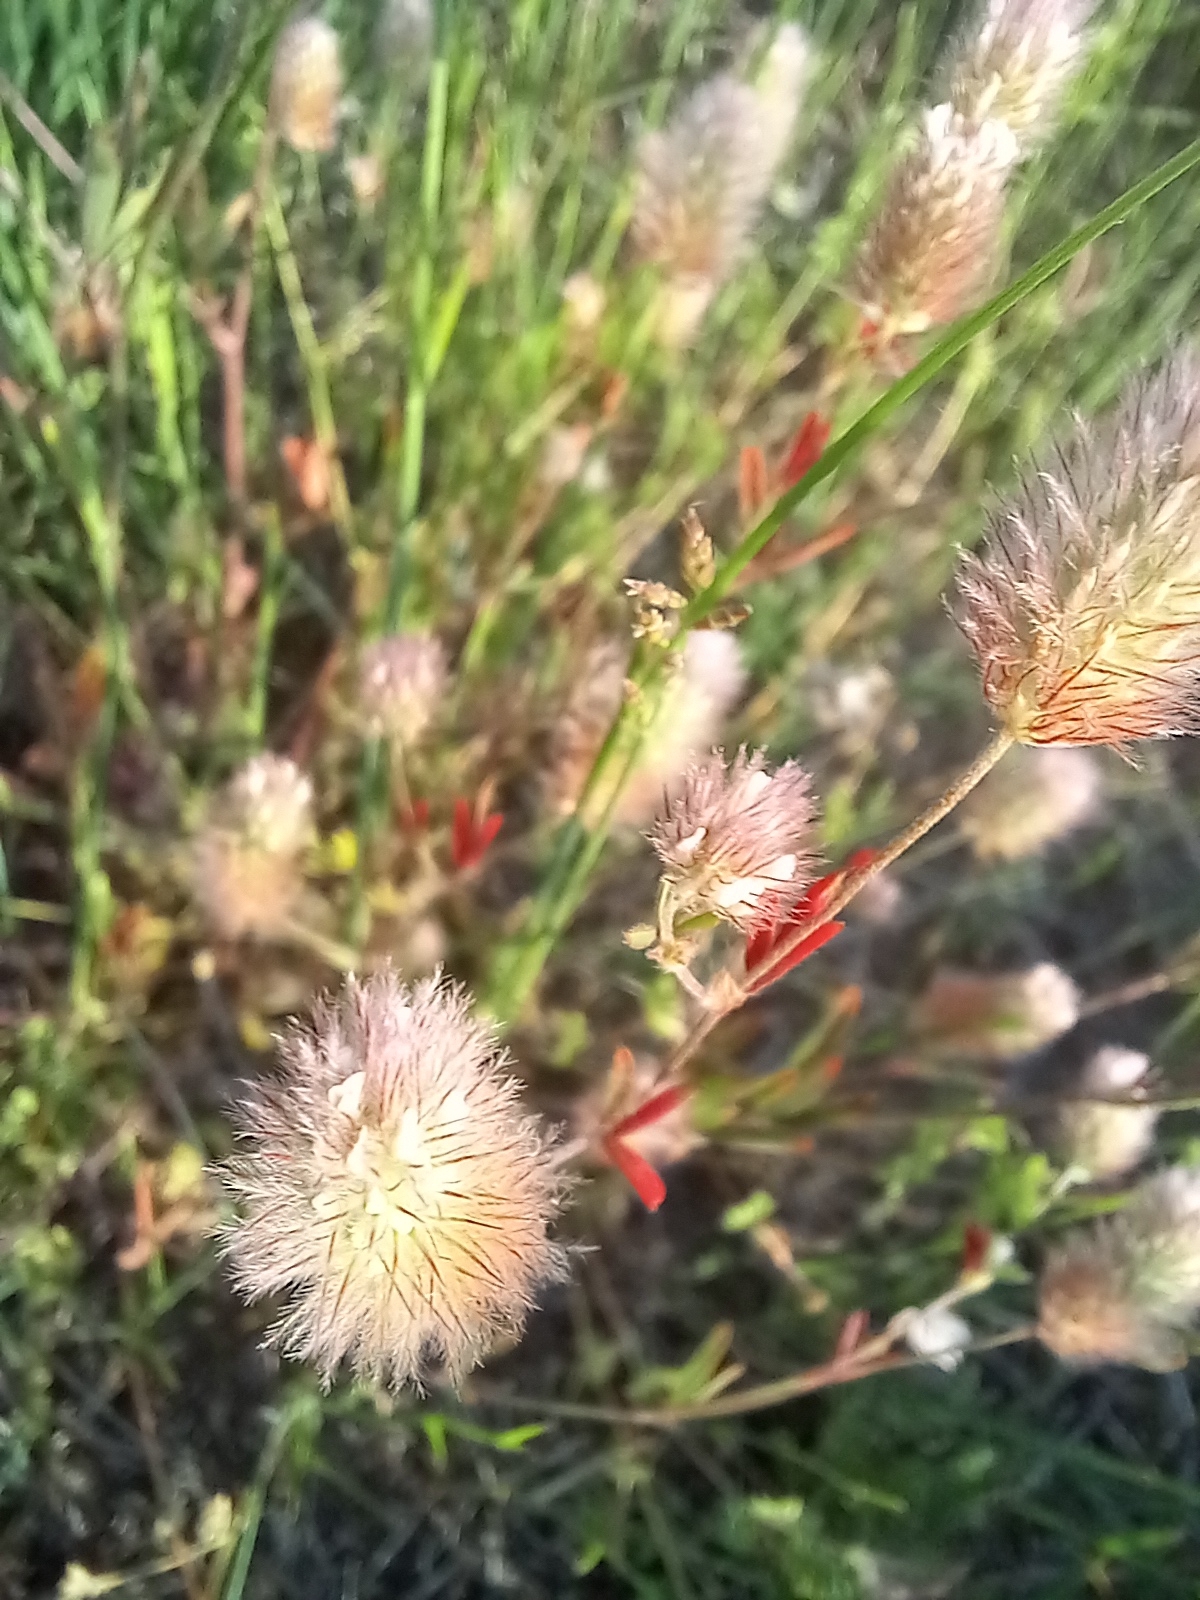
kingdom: Plantae
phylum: Tracheophyta
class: Magnoliopsida
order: Fabales
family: Fabaceae
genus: Trifolium
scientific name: Trifolium arvense
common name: Hare's-foot clover
